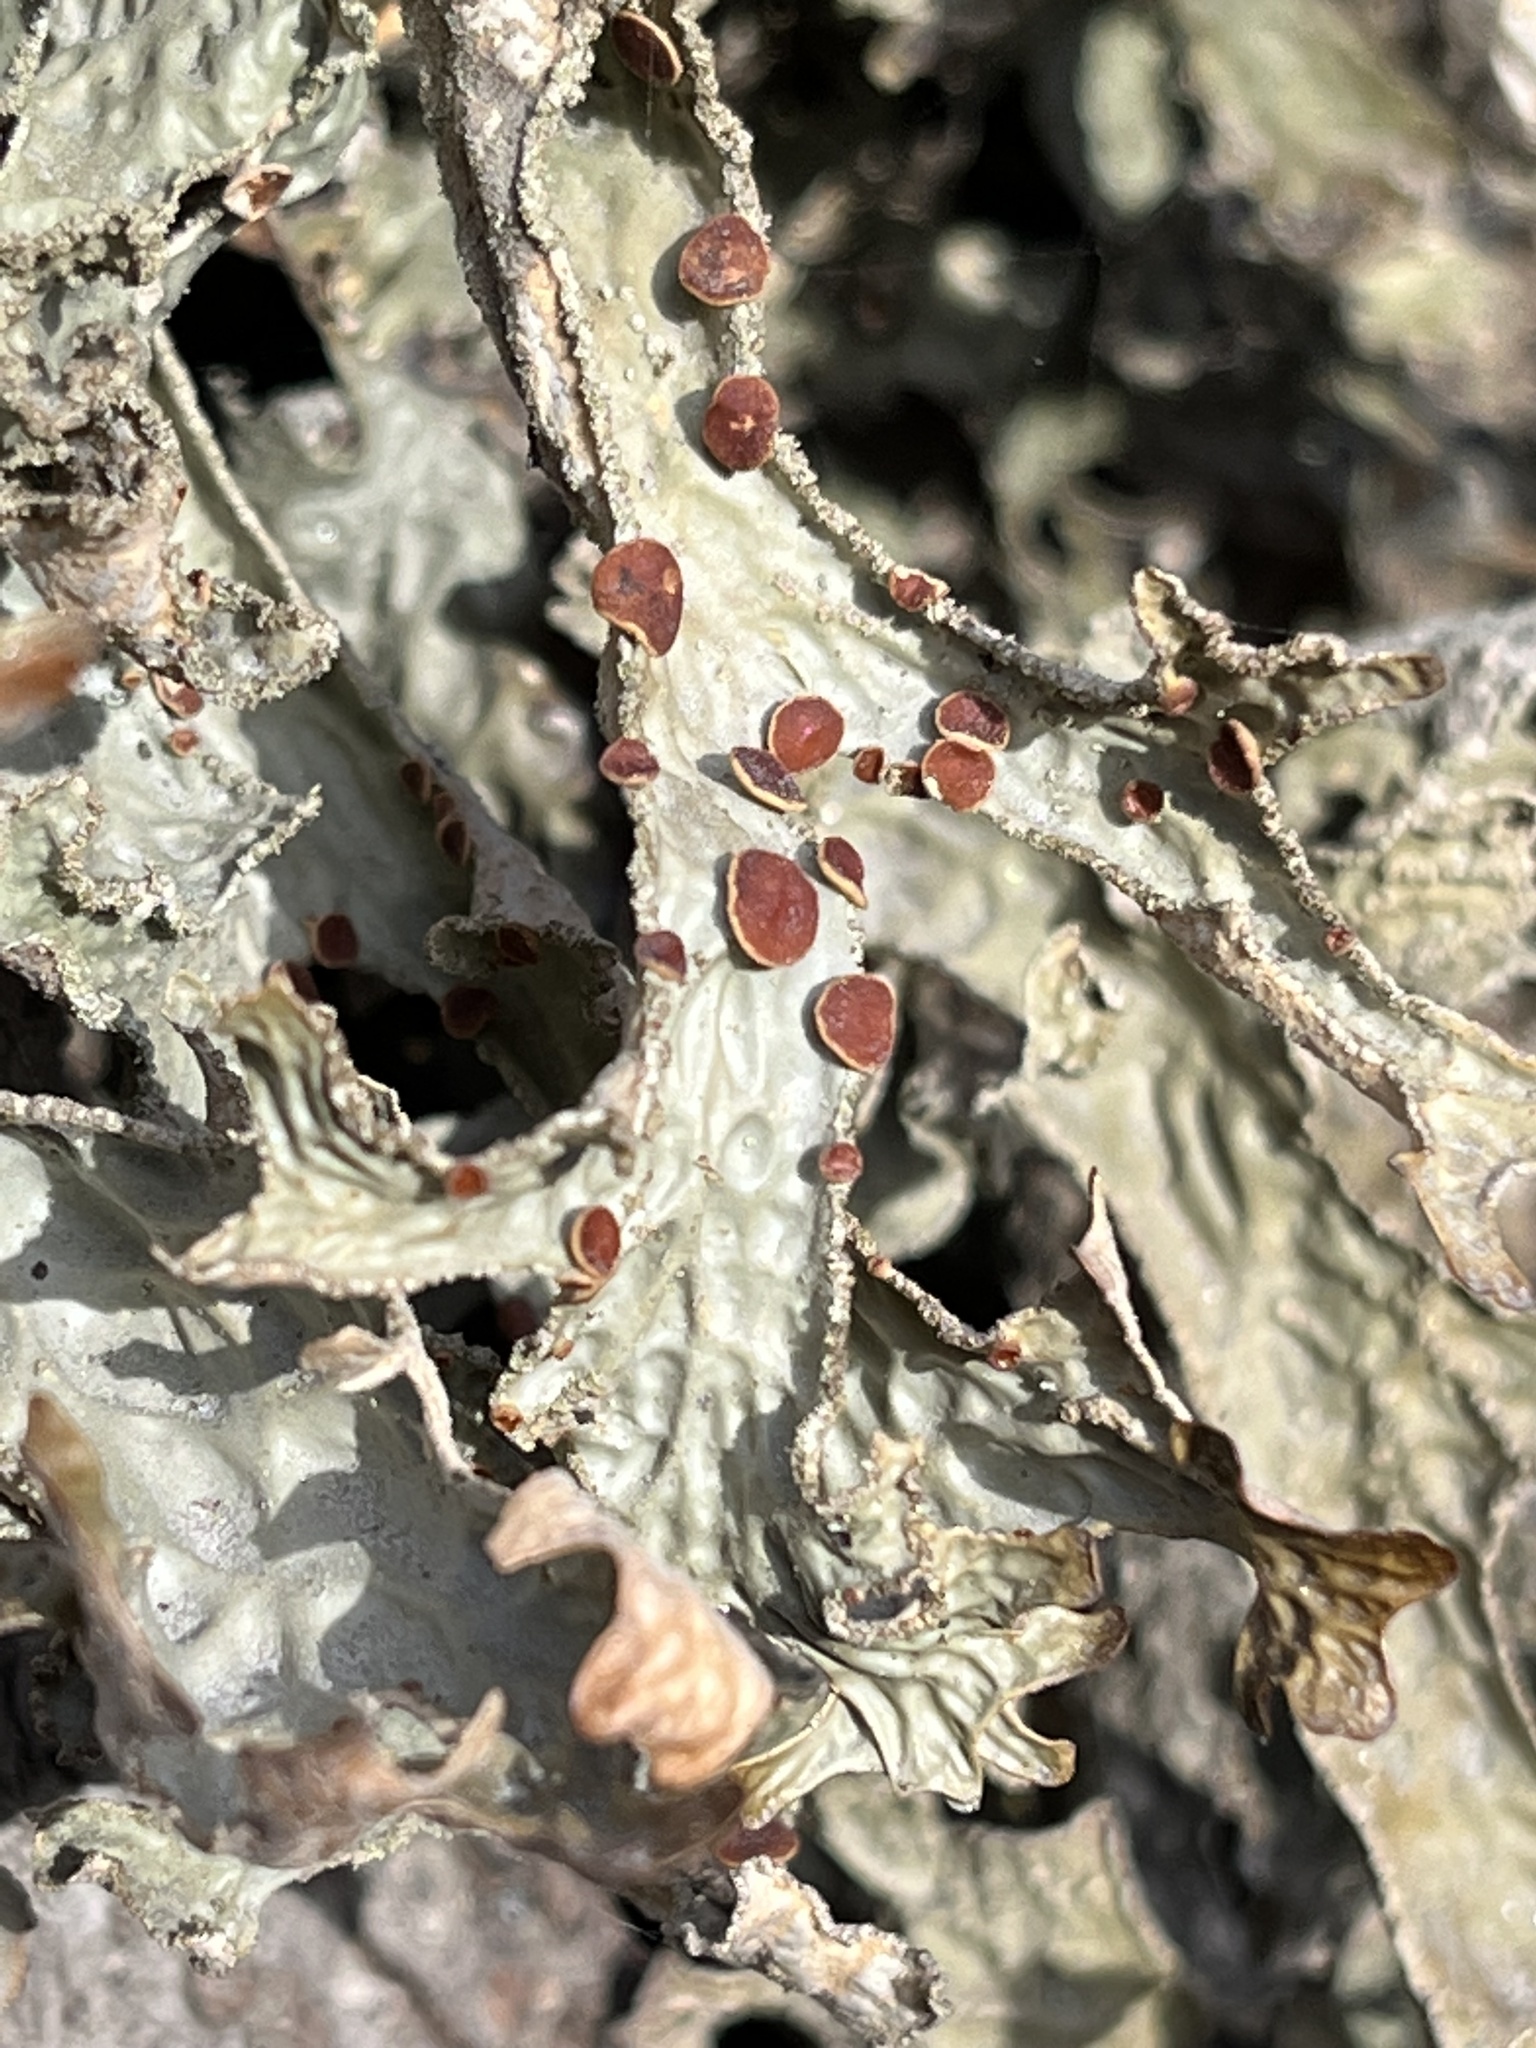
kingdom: Fungi
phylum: Ascomycota
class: Lecanoromycetes
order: Peltigerales
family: Lobariaceae
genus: Lobarina
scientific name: Lobarina scrobiculata
